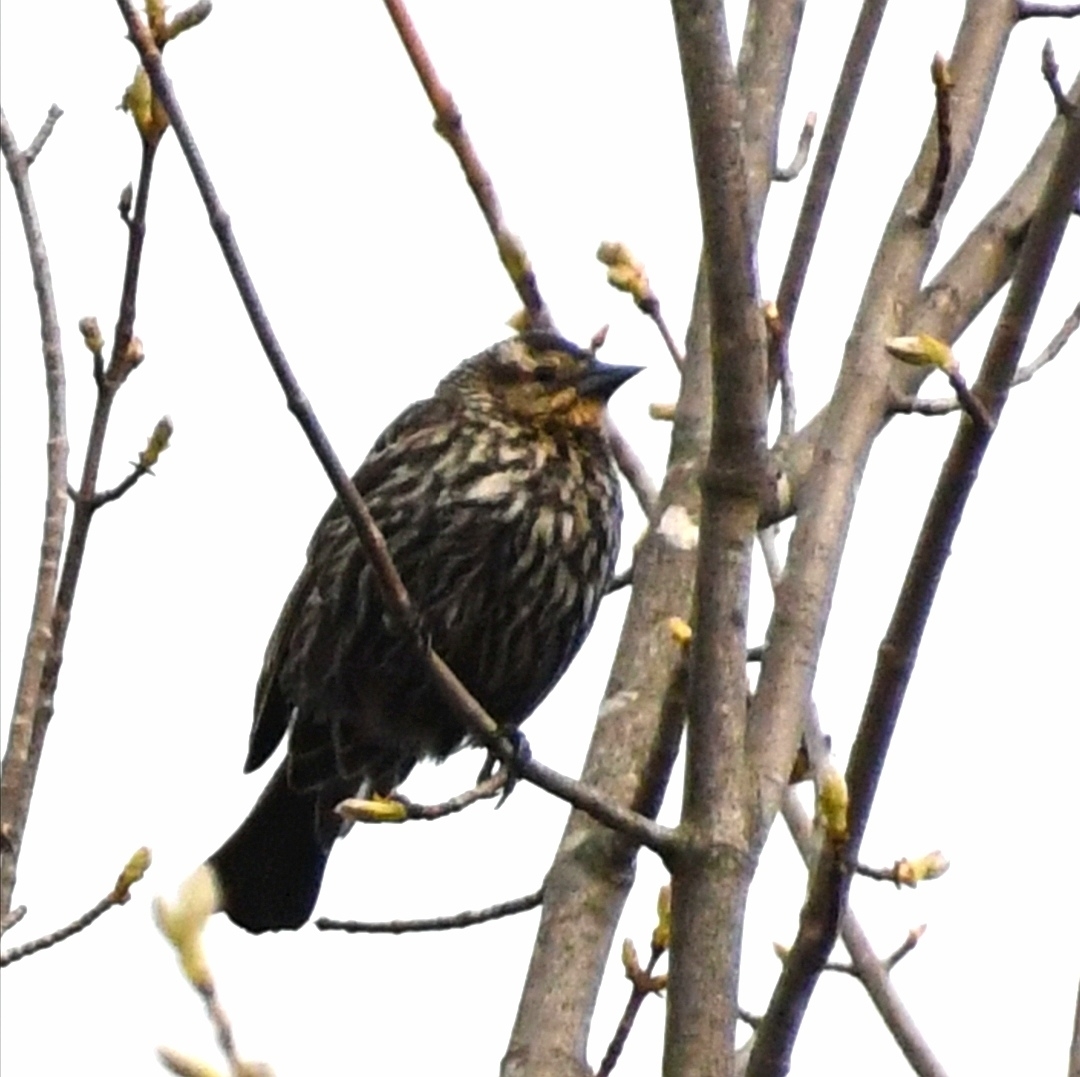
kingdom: Animalia
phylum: Chordata
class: Aves
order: Passeriformes
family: Icteridae
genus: Agelaius
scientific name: Agelaius phoeniceus
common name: Red-winged blackbird
